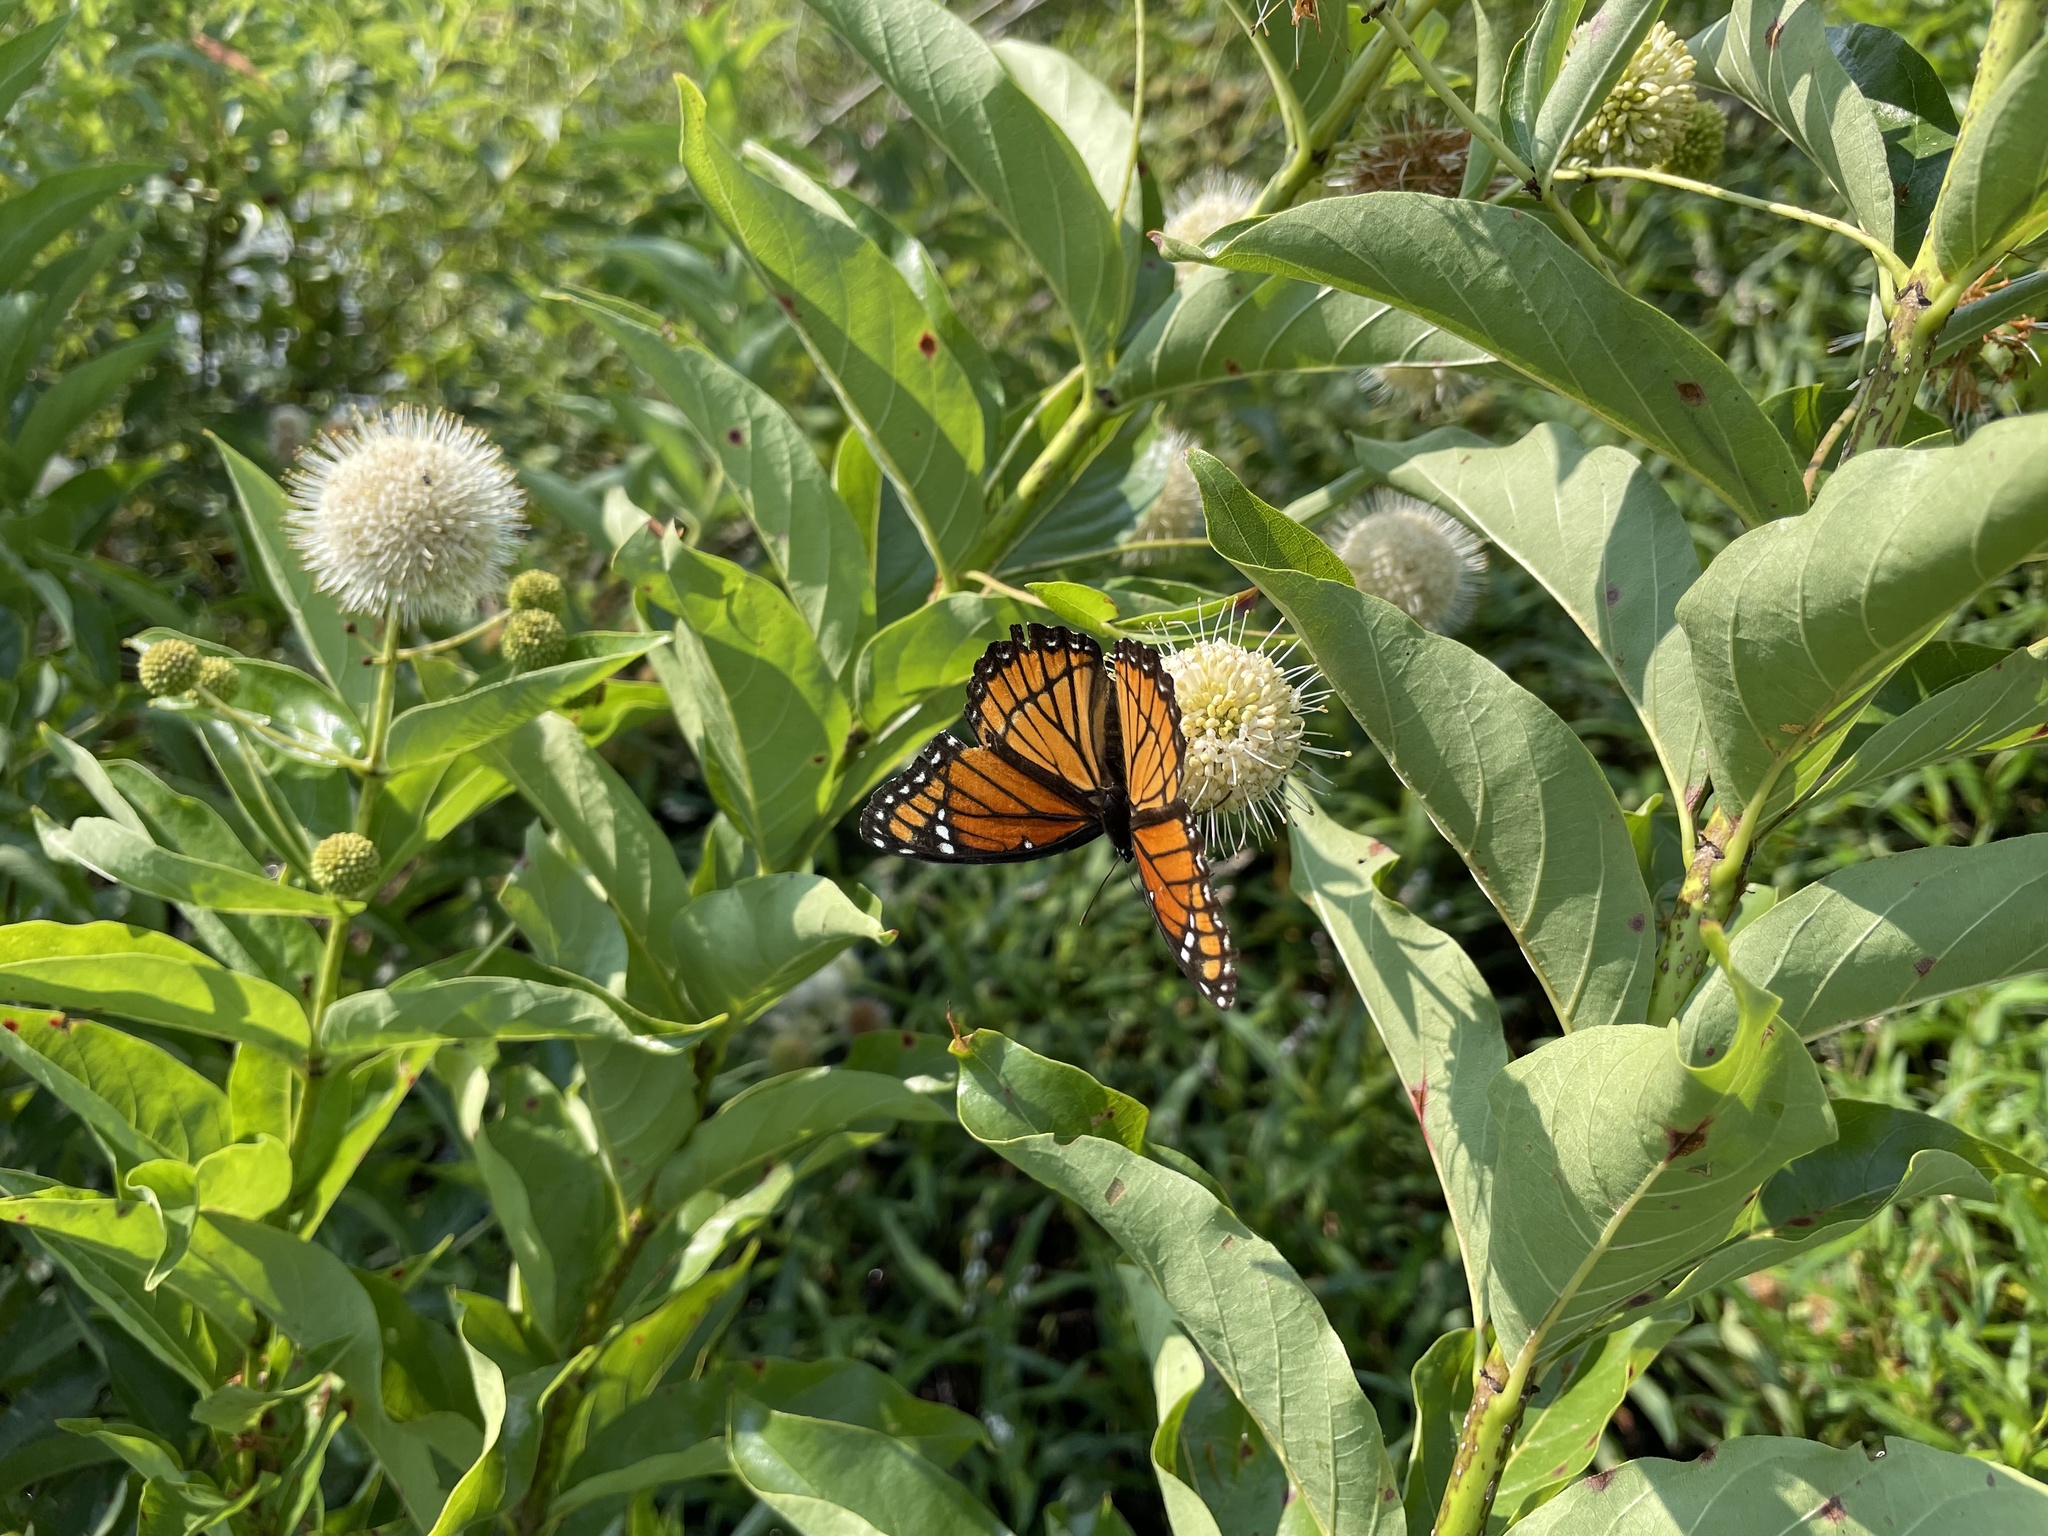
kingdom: Animalia
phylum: Arthropoda
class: Insecta
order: Lepidoptera
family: Nymphalidae
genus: Limenitis
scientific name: Limenitis archippus
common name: Viceroy
